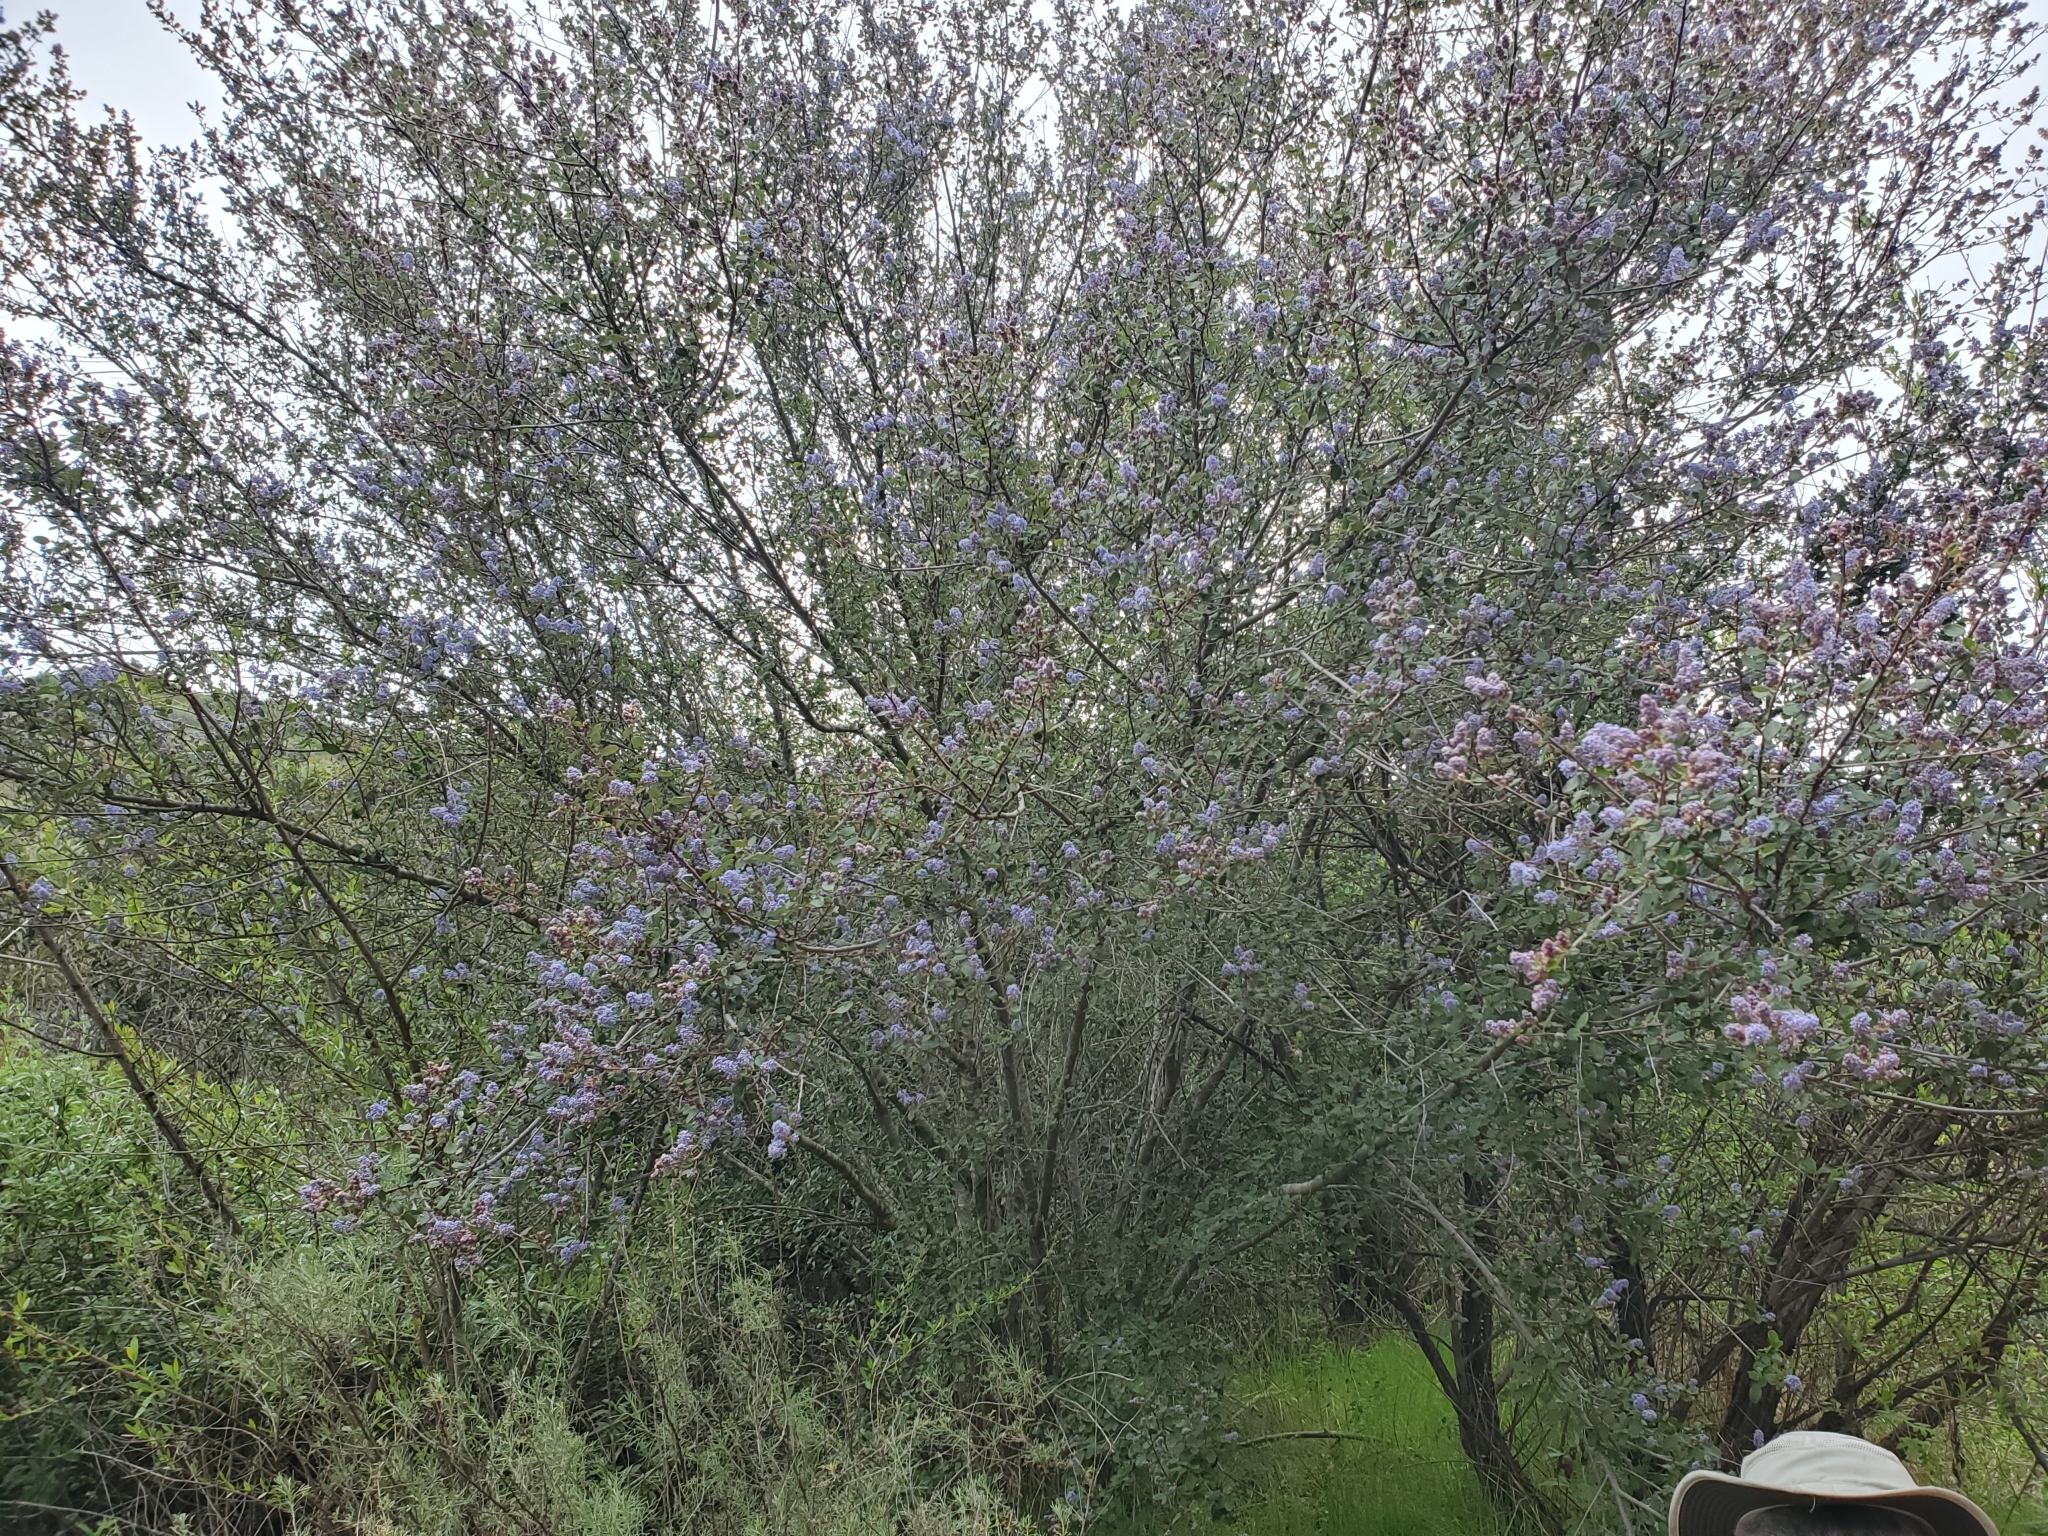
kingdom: Plantae
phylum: Tracheophyta
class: Magnoliopsida
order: Rosales
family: Rhamnaceae
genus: Ceanothus
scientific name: Ceanothus oliganthus
